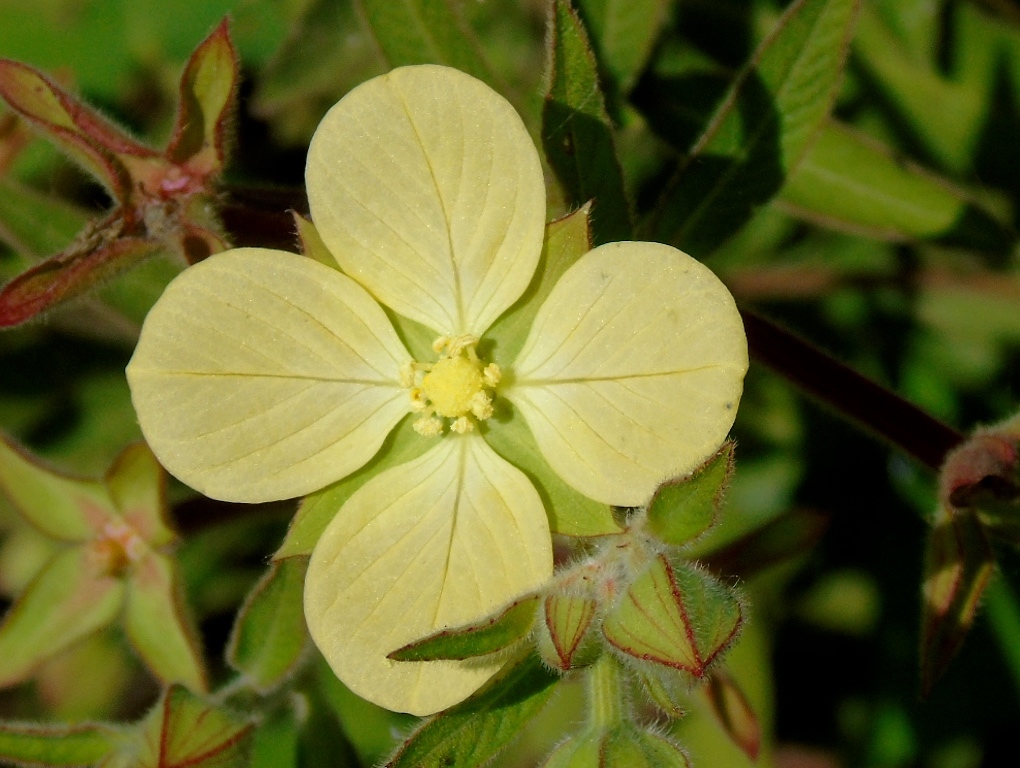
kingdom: Plantae
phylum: Tracheophyta
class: Magnoliopsida
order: Myrtales
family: Onagraceae
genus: Ludwigia
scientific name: Ludwigia octovalvis
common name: Water-primrose
